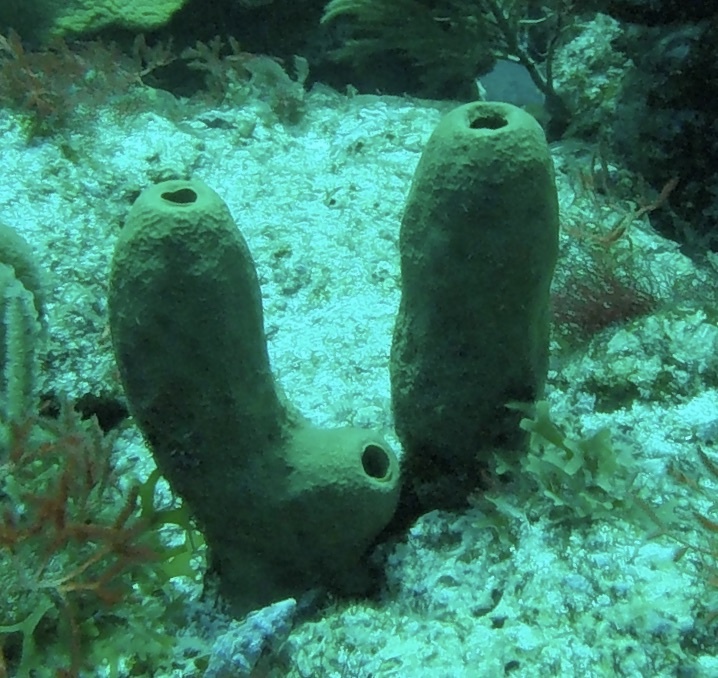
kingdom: Animalia
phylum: Porifera
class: Demospongiae
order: Verongiida
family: Aplysinidae
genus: Aplysina
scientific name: Aplysina fistularis
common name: Candle sponge
